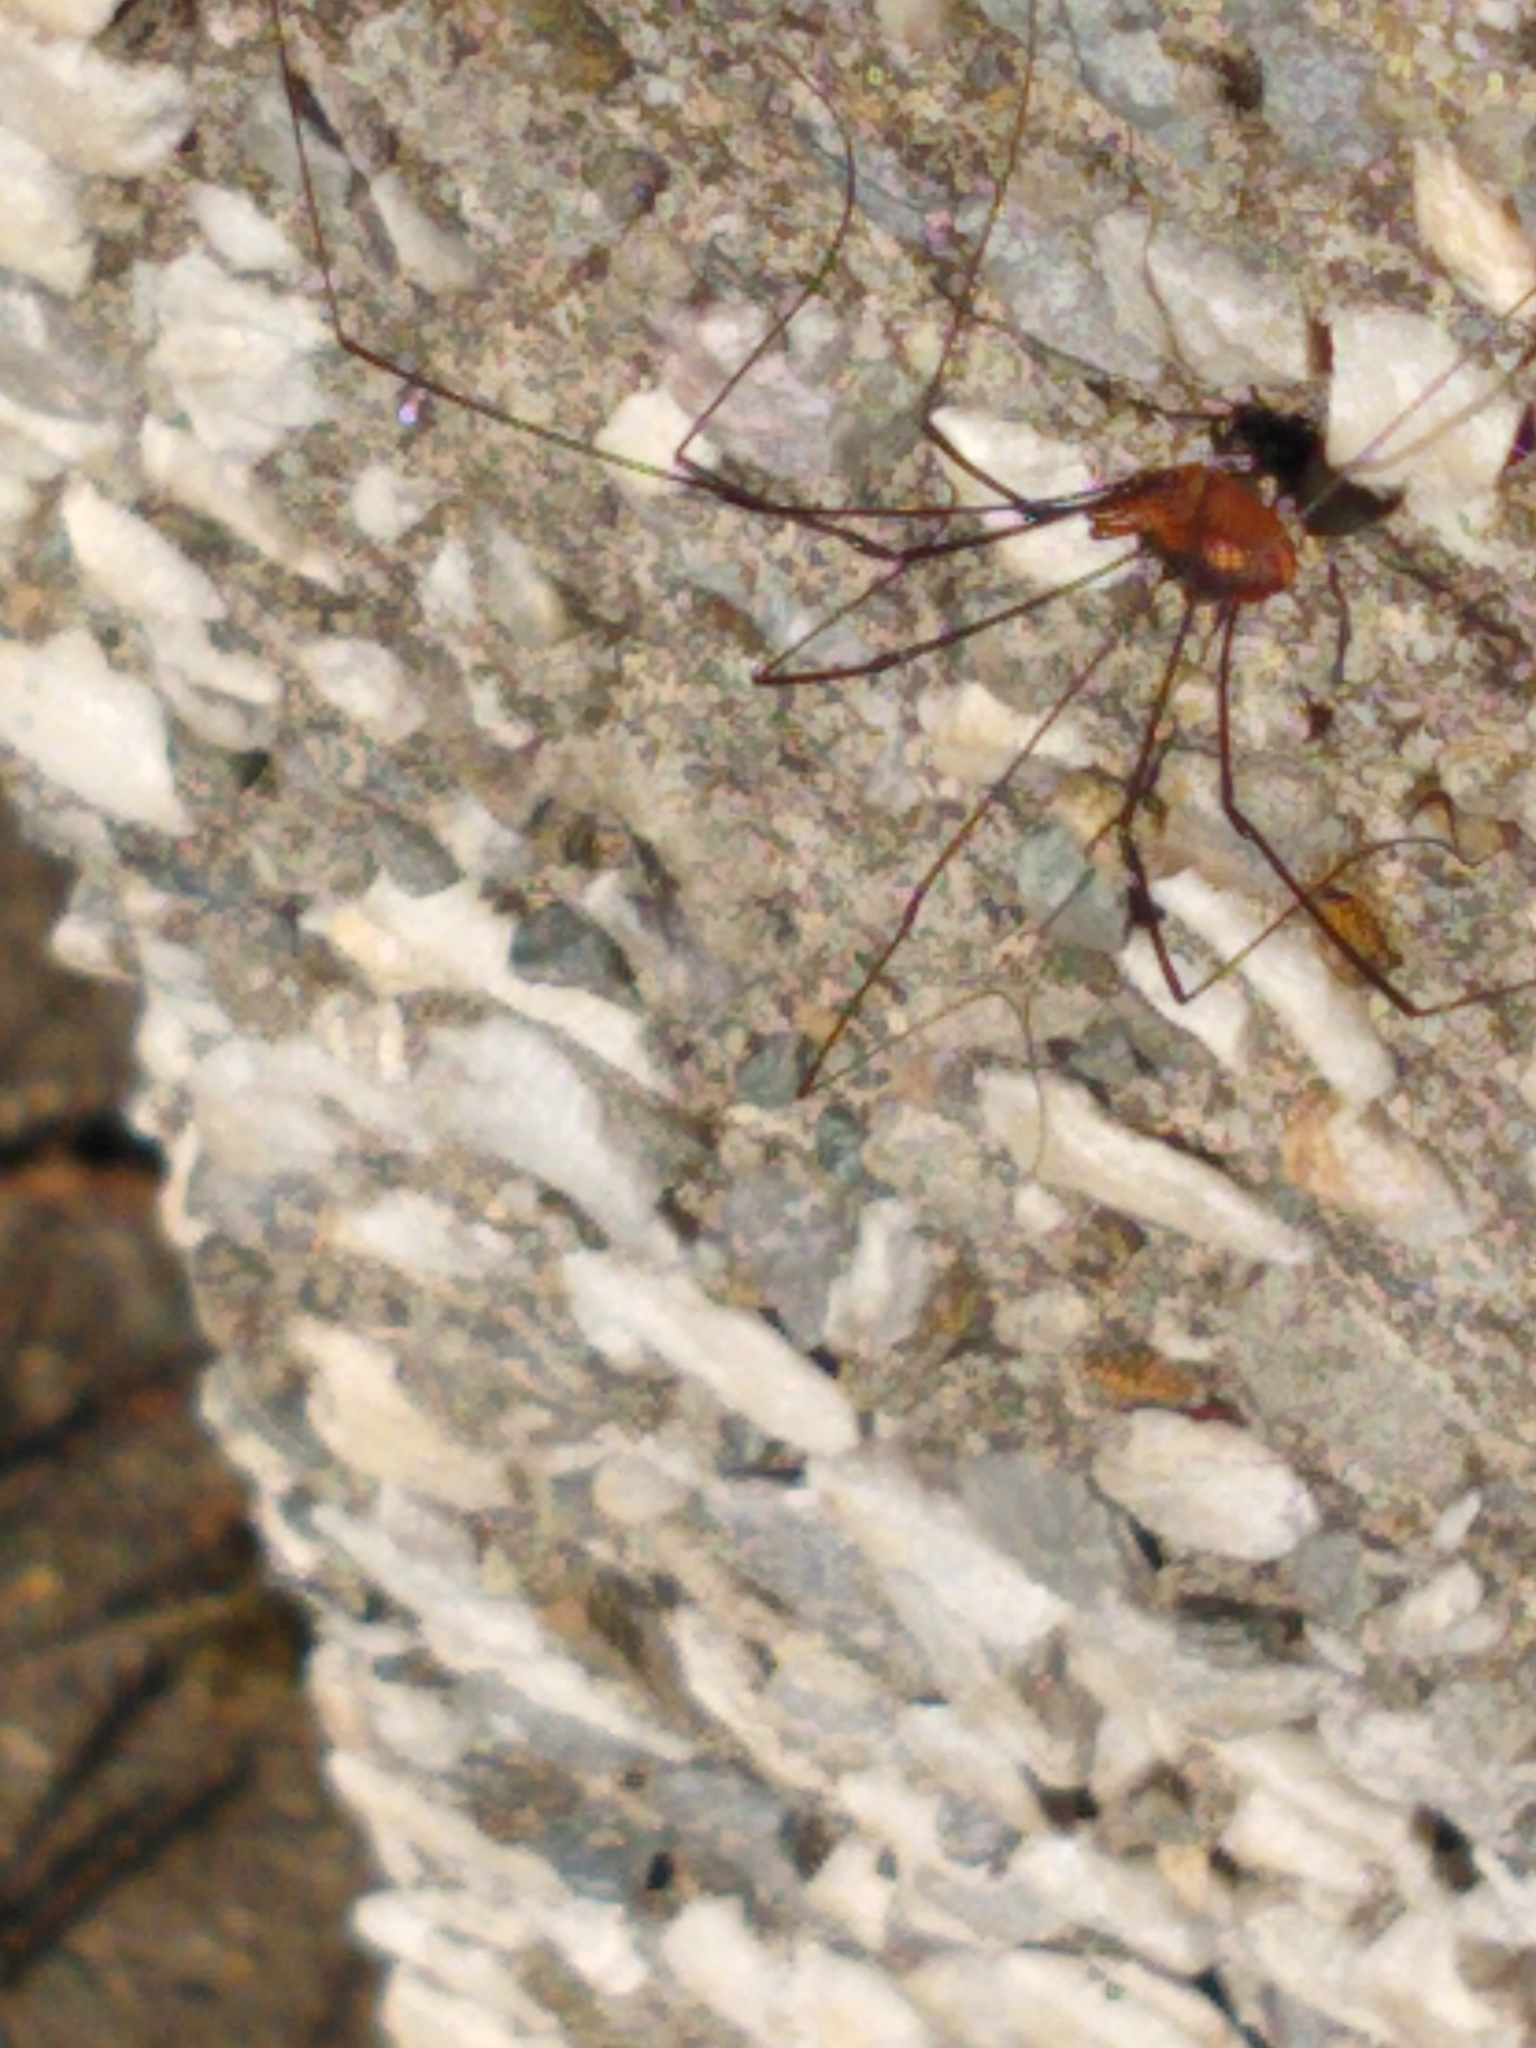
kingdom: Animalia
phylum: Arthropoda
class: Arachnida
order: Opiliones
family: Sclerosomatidae
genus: Leiobunum
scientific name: Leiobunum vittatum
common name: Eastern harvestman
